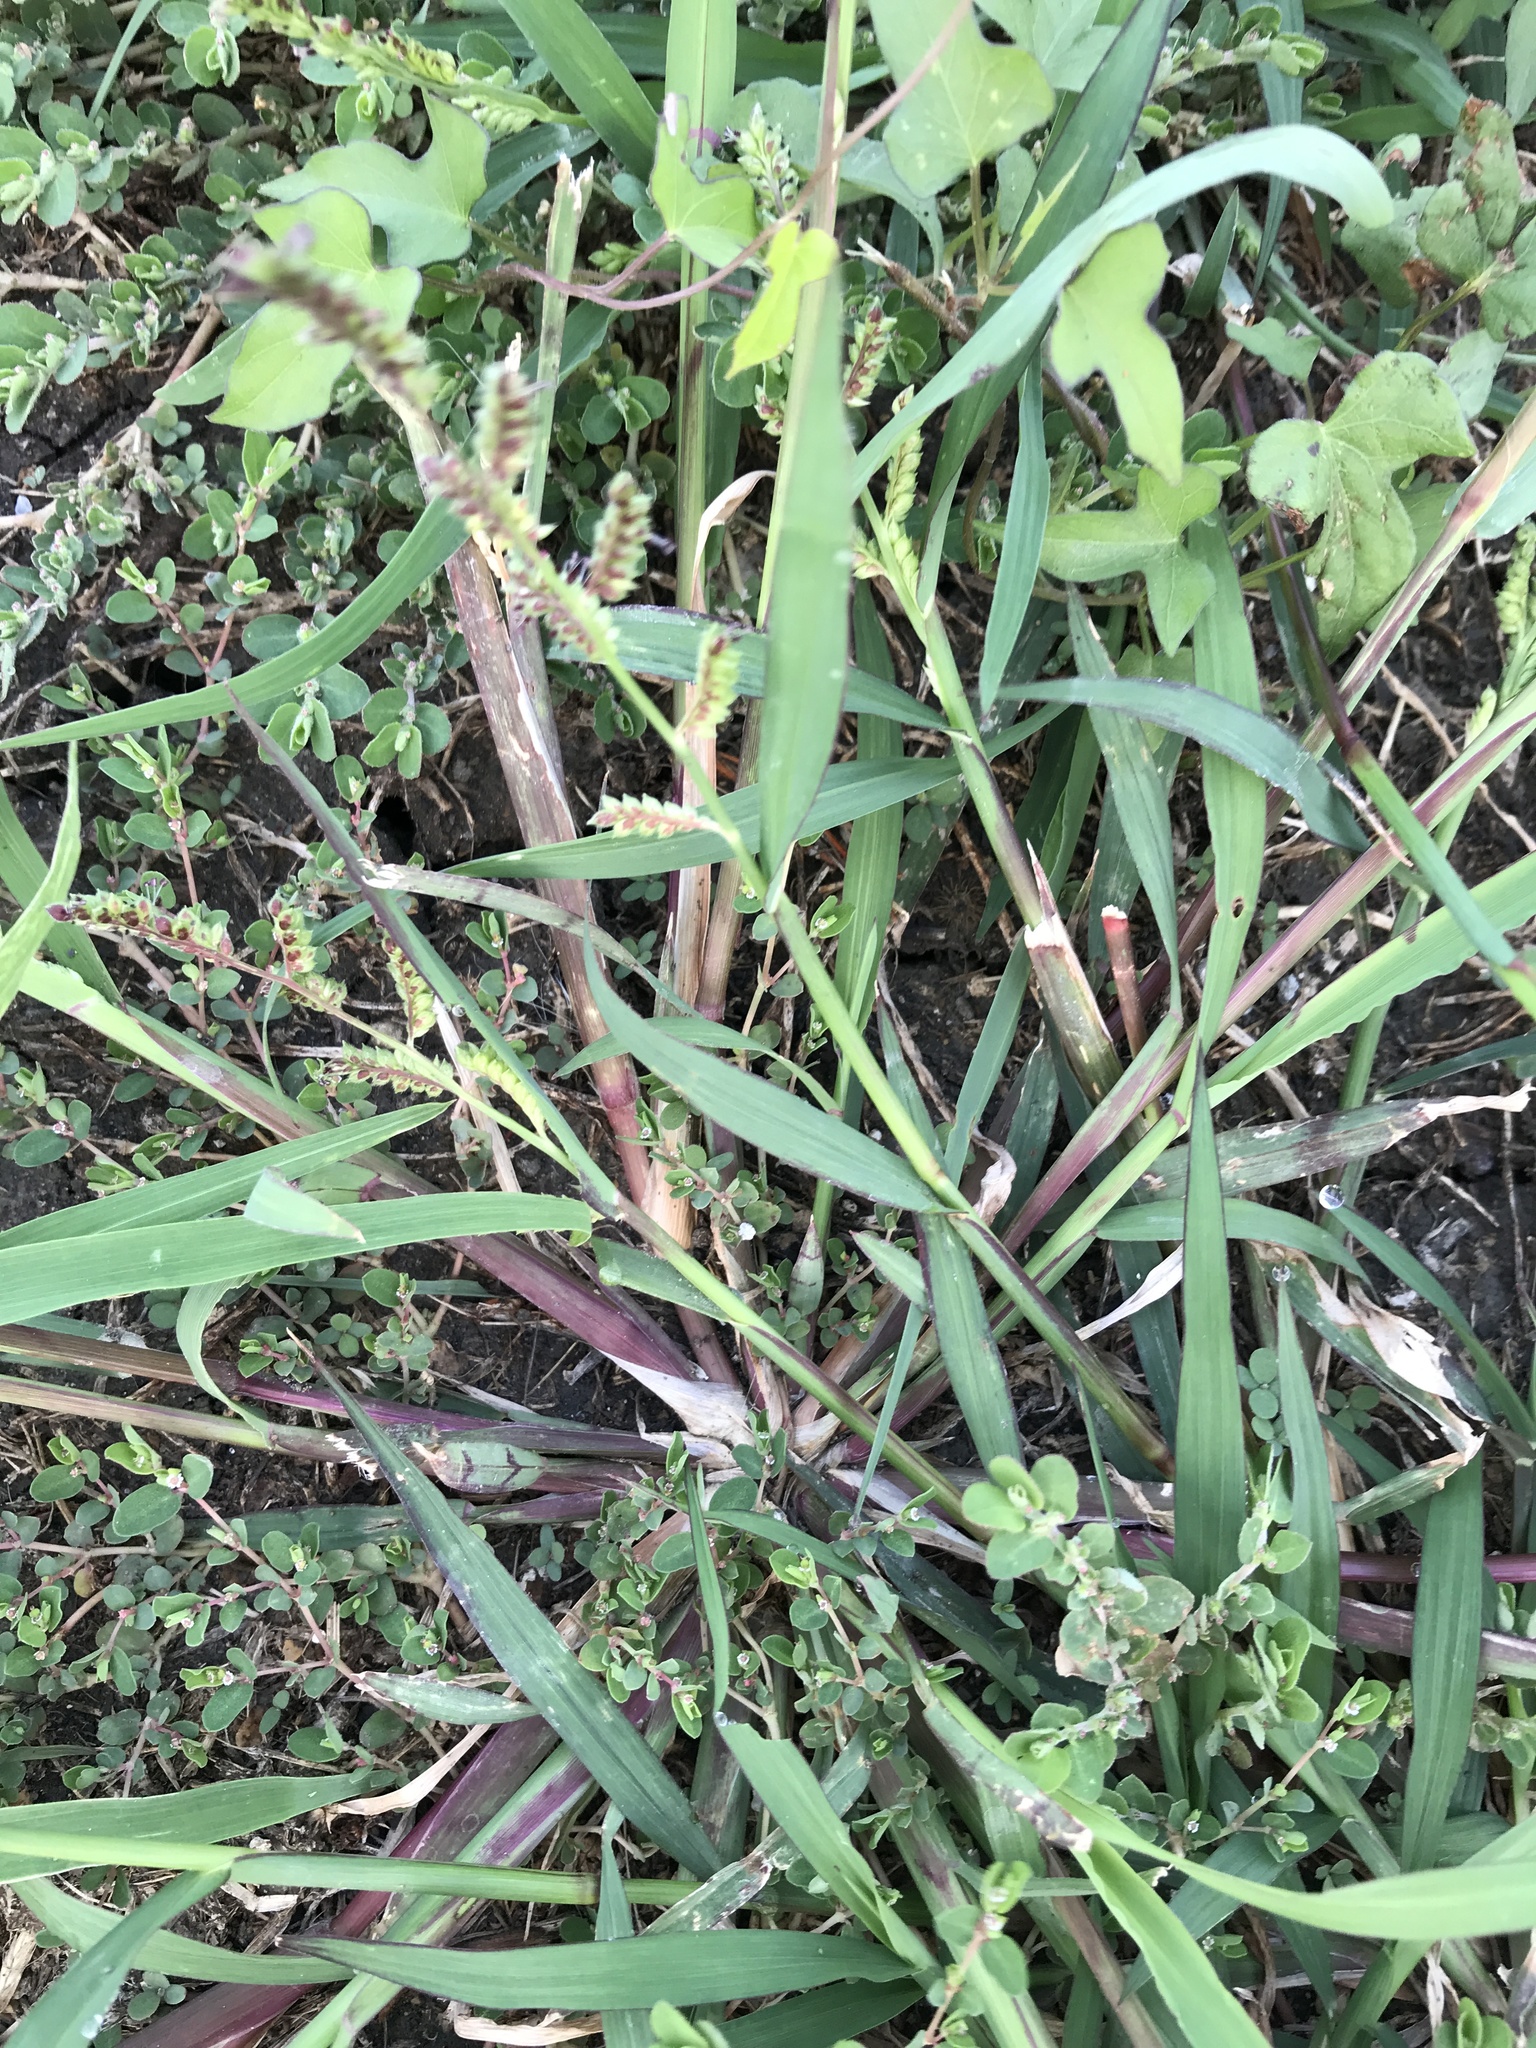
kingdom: Plantae
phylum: Tracheophyta
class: Liliopsida
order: Poales
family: Poaceae
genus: Echinochloa
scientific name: Echinochloa colonum
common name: Jungle rice
